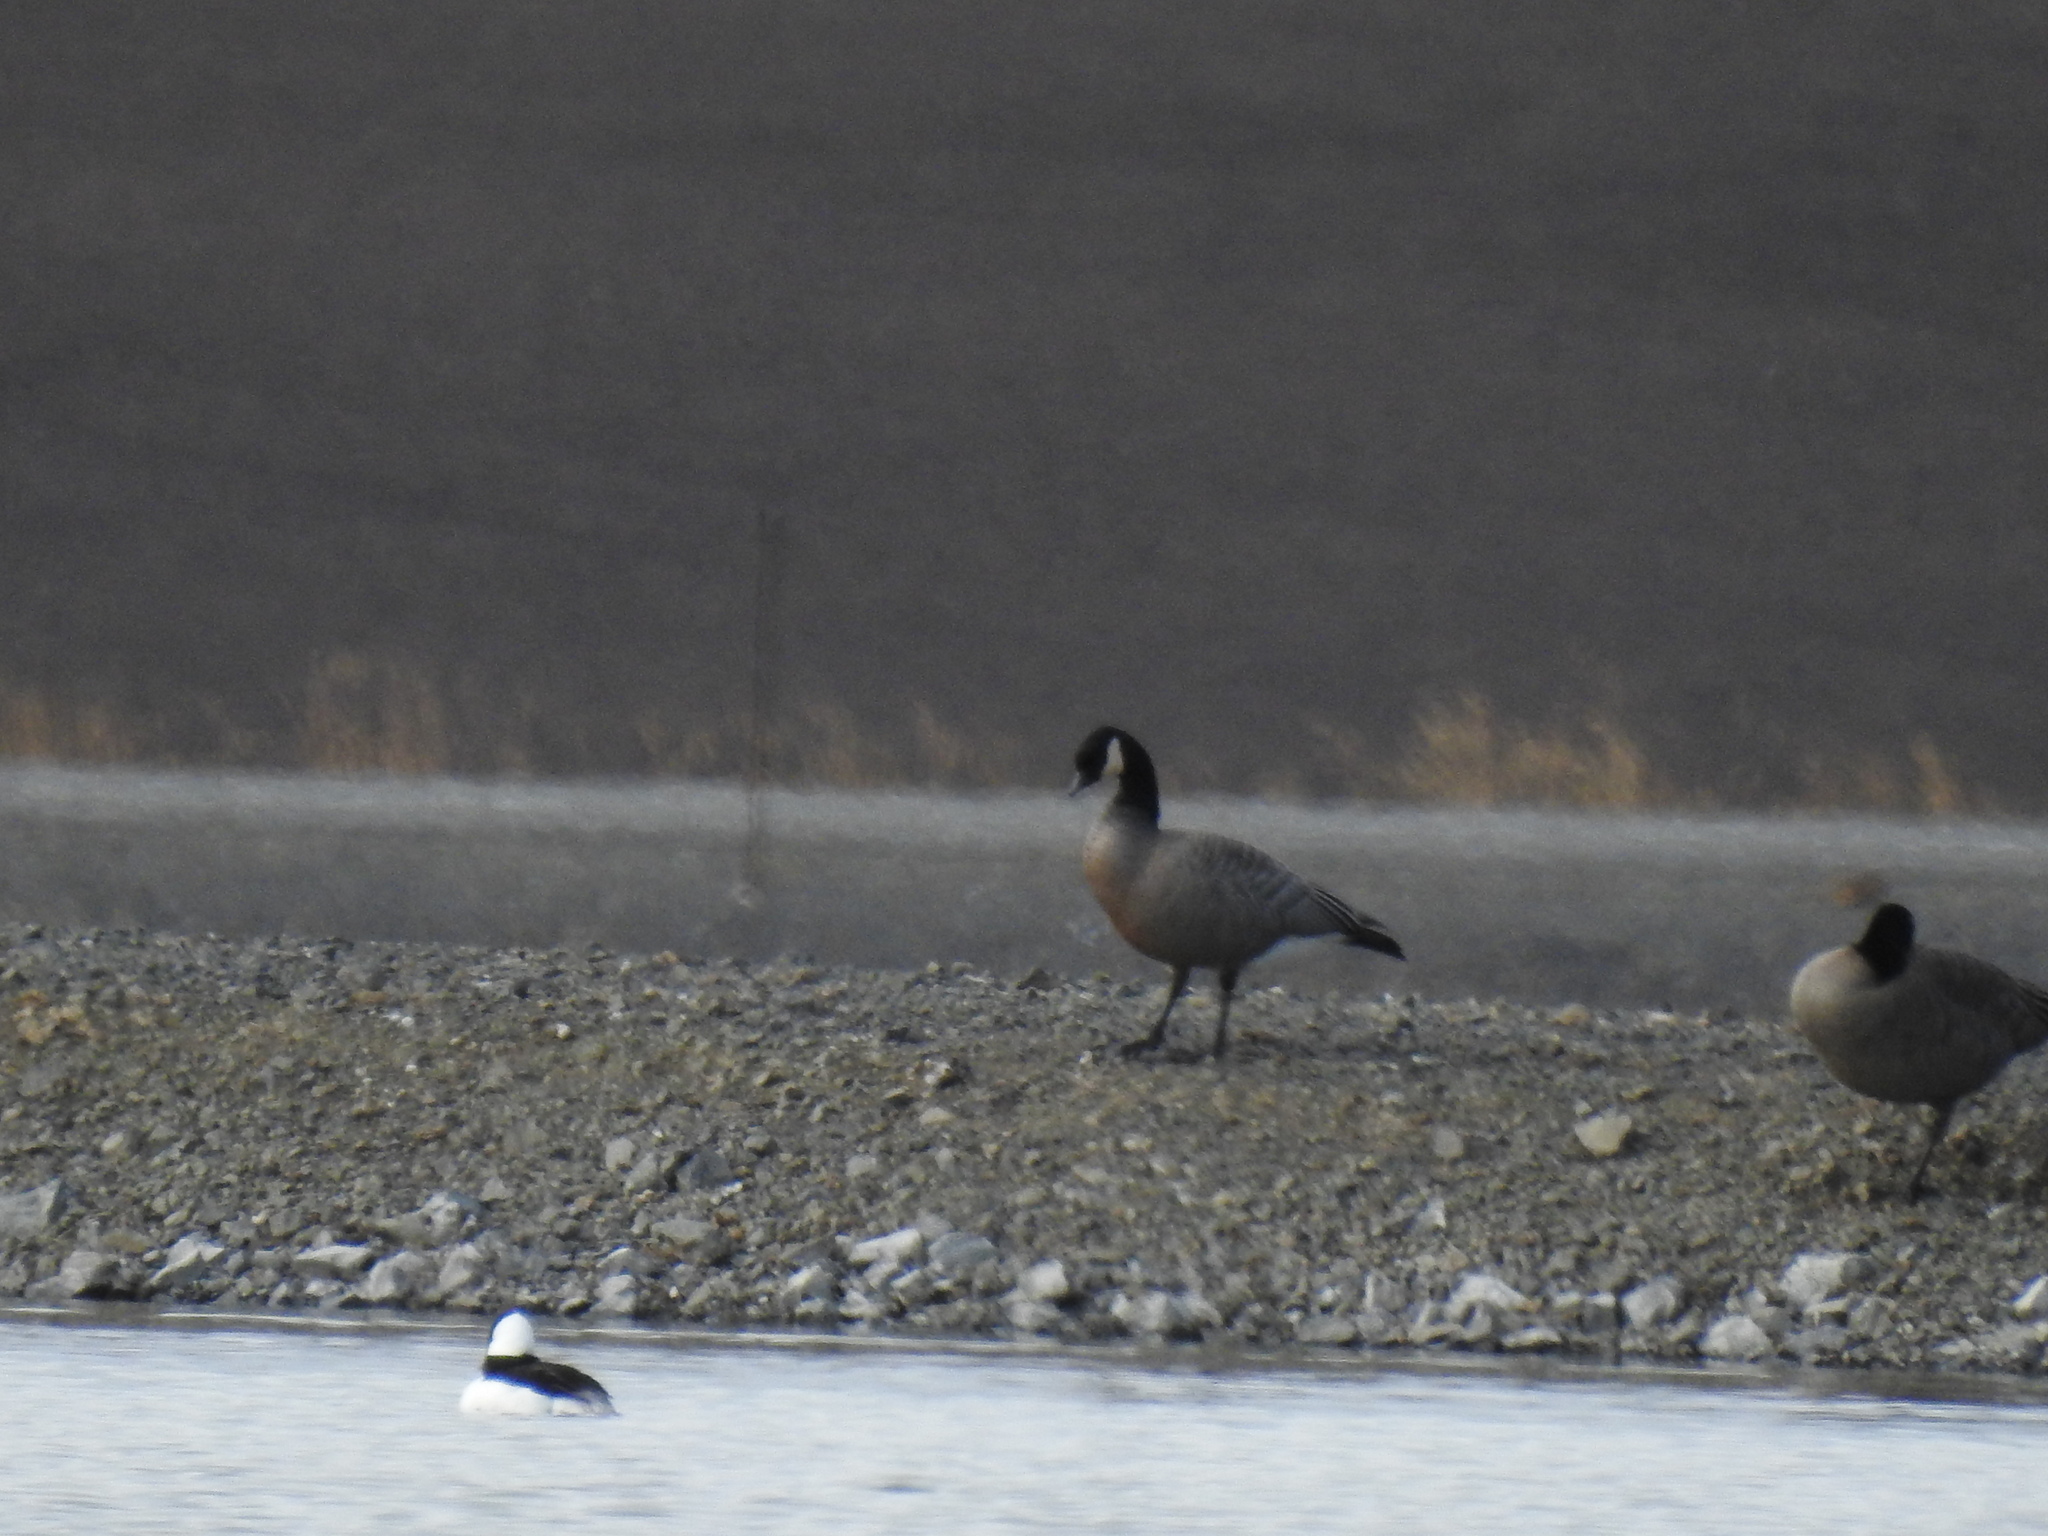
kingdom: Animalia
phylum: Chordata
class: Aves
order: Anseriformes
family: Anatidae
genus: Branta
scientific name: Branta hutchinsii
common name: Cackling goose
